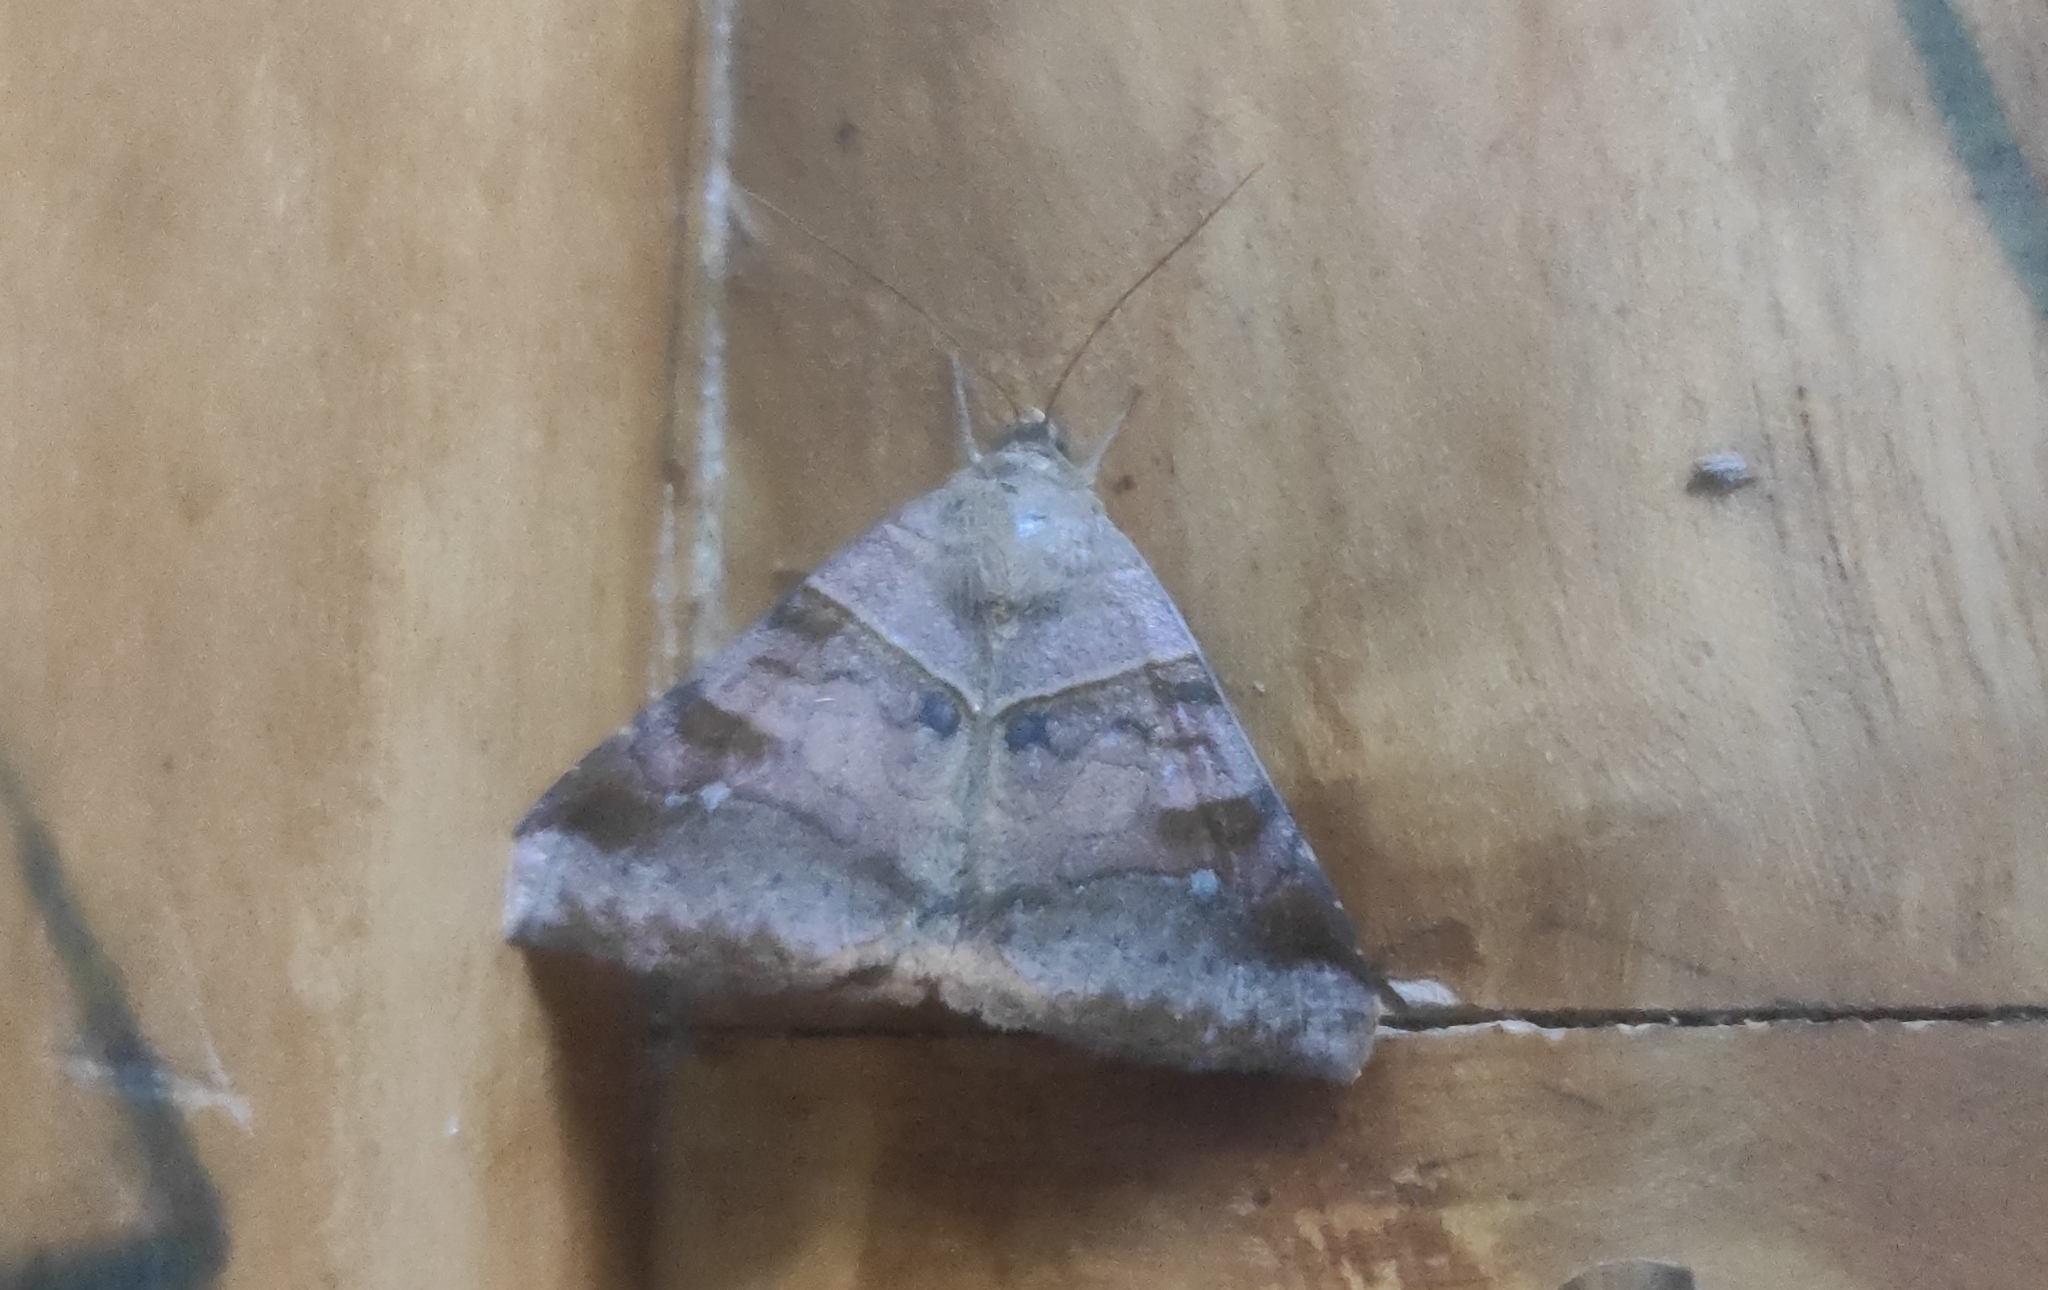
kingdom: Animalia
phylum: Arthropoda
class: Insecta
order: Lepidoptera
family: Erebidae
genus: Mocis
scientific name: Mocis undata
